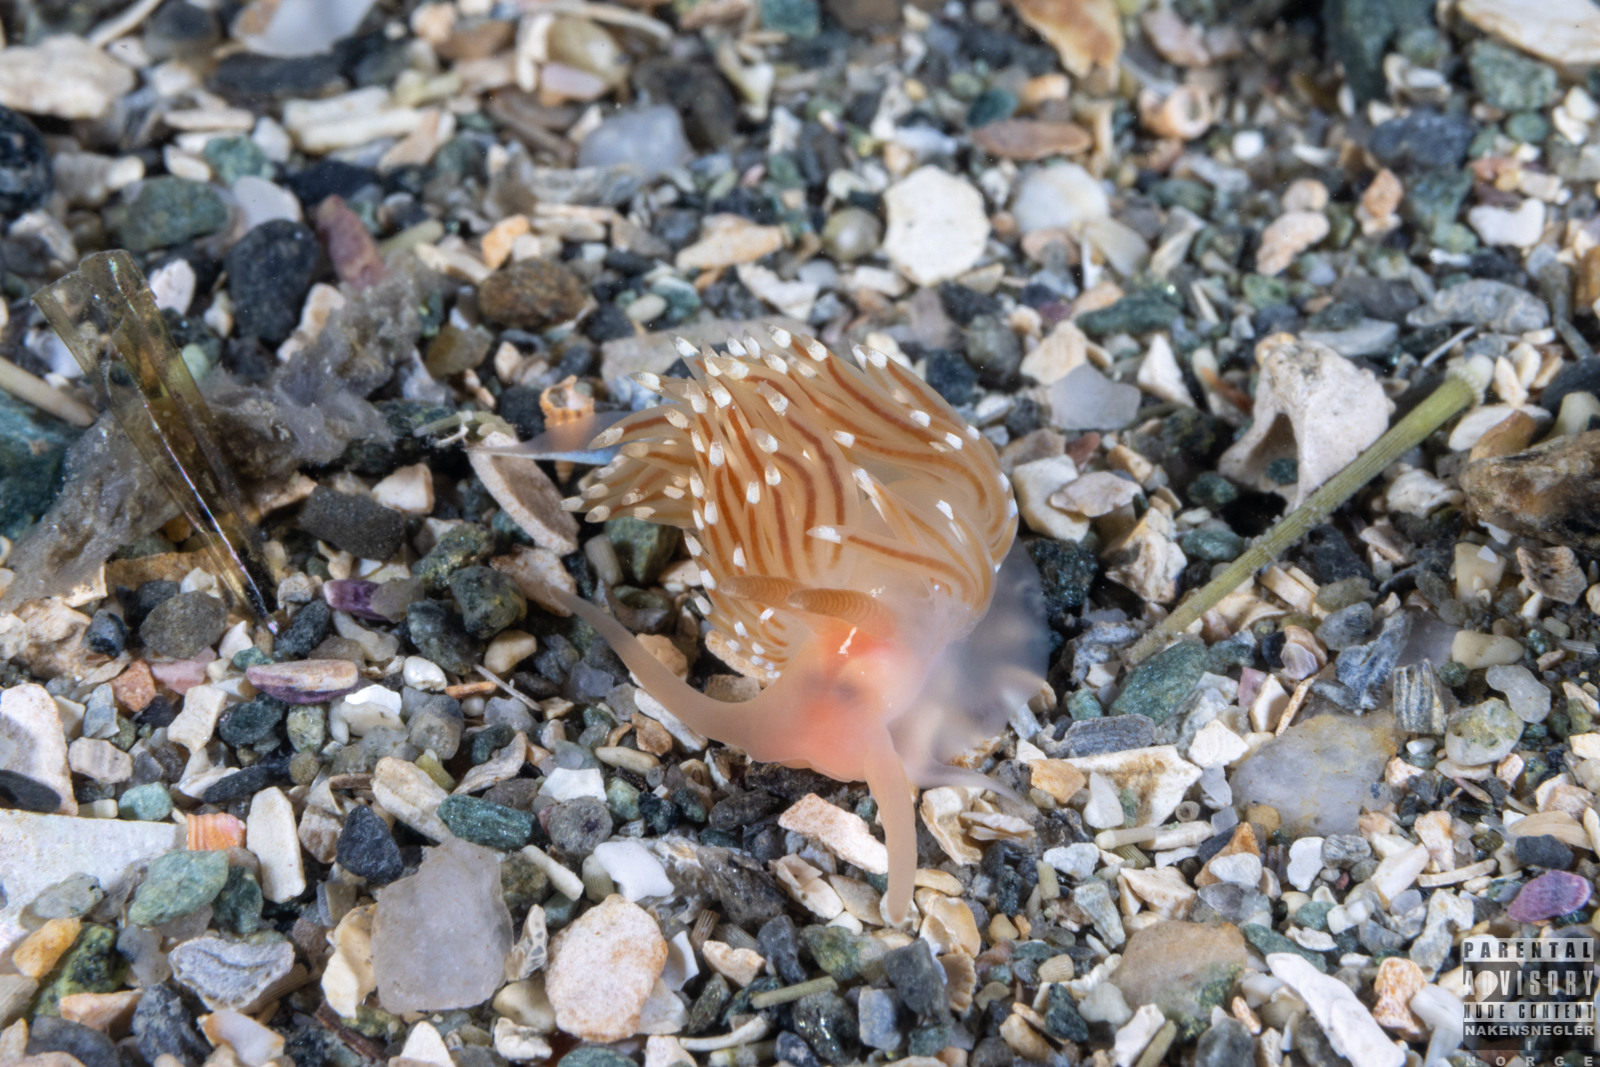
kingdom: Animalia
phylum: Mollusca
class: Gastropoda
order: Nudibranchia
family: Facelinidae
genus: Facelina
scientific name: Facelina bostoniensis
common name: Boston facelina
